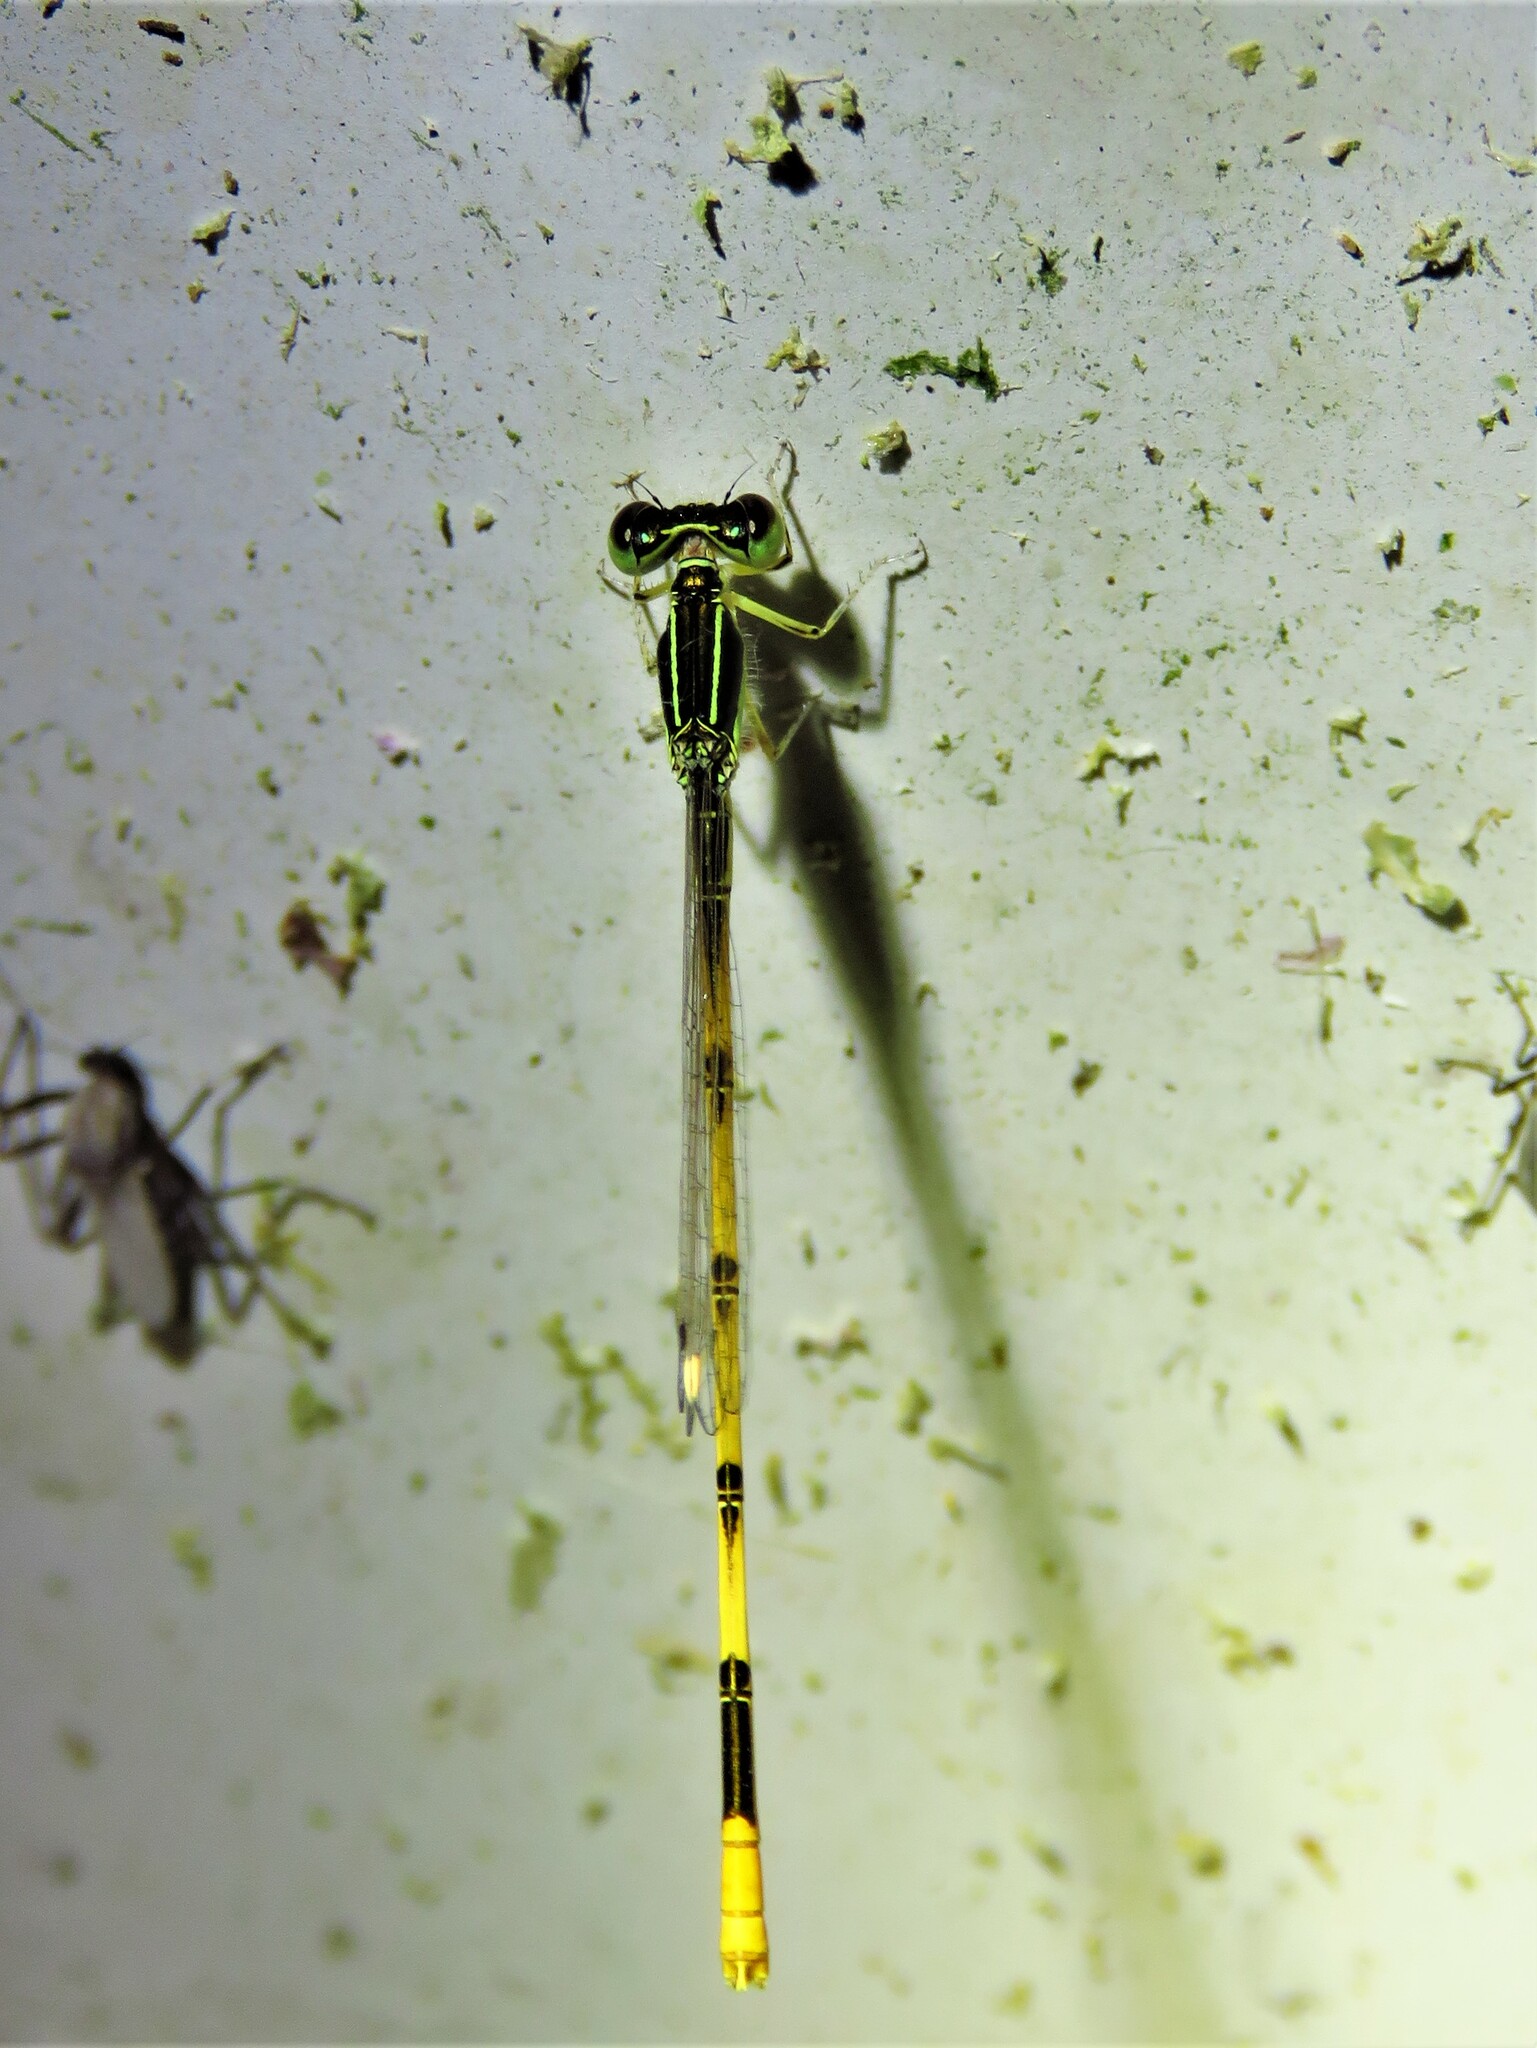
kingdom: Animalia
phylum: Arthropoda
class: Insecta
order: Odonata
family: Coenagrionidae
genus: Ischnura
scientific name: Ischnura hastata
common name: Citrine forktail
